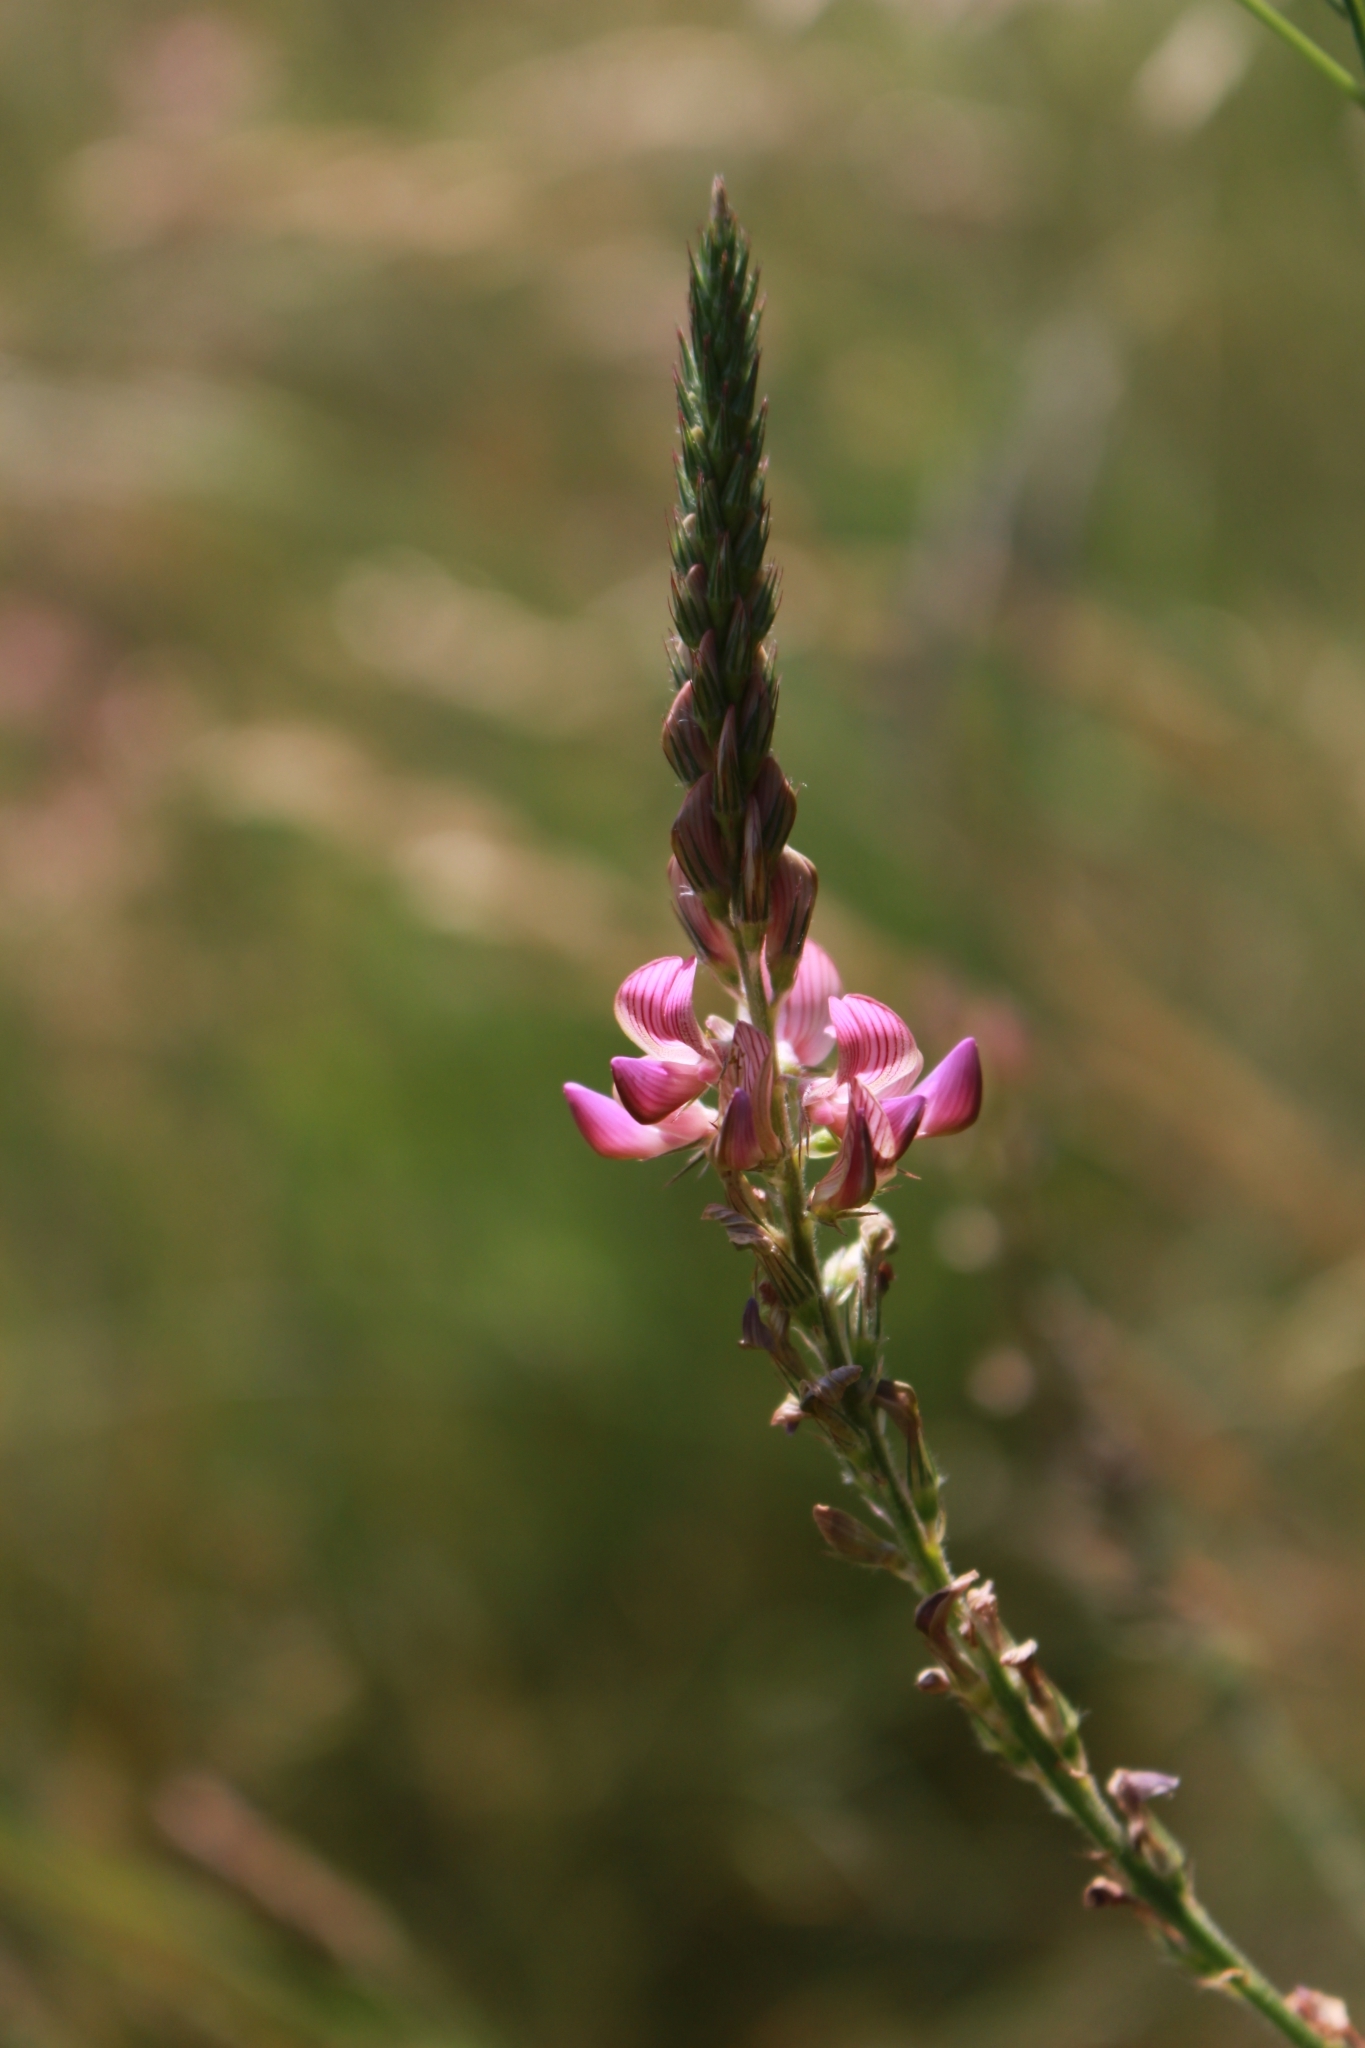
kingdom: Plantae
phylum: Tracheophyta
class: Magnoliopsida
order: Fabales
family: Fabaceae
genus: Onobrychis
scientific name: Onobrychis arenaria
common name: Sand esparcet
